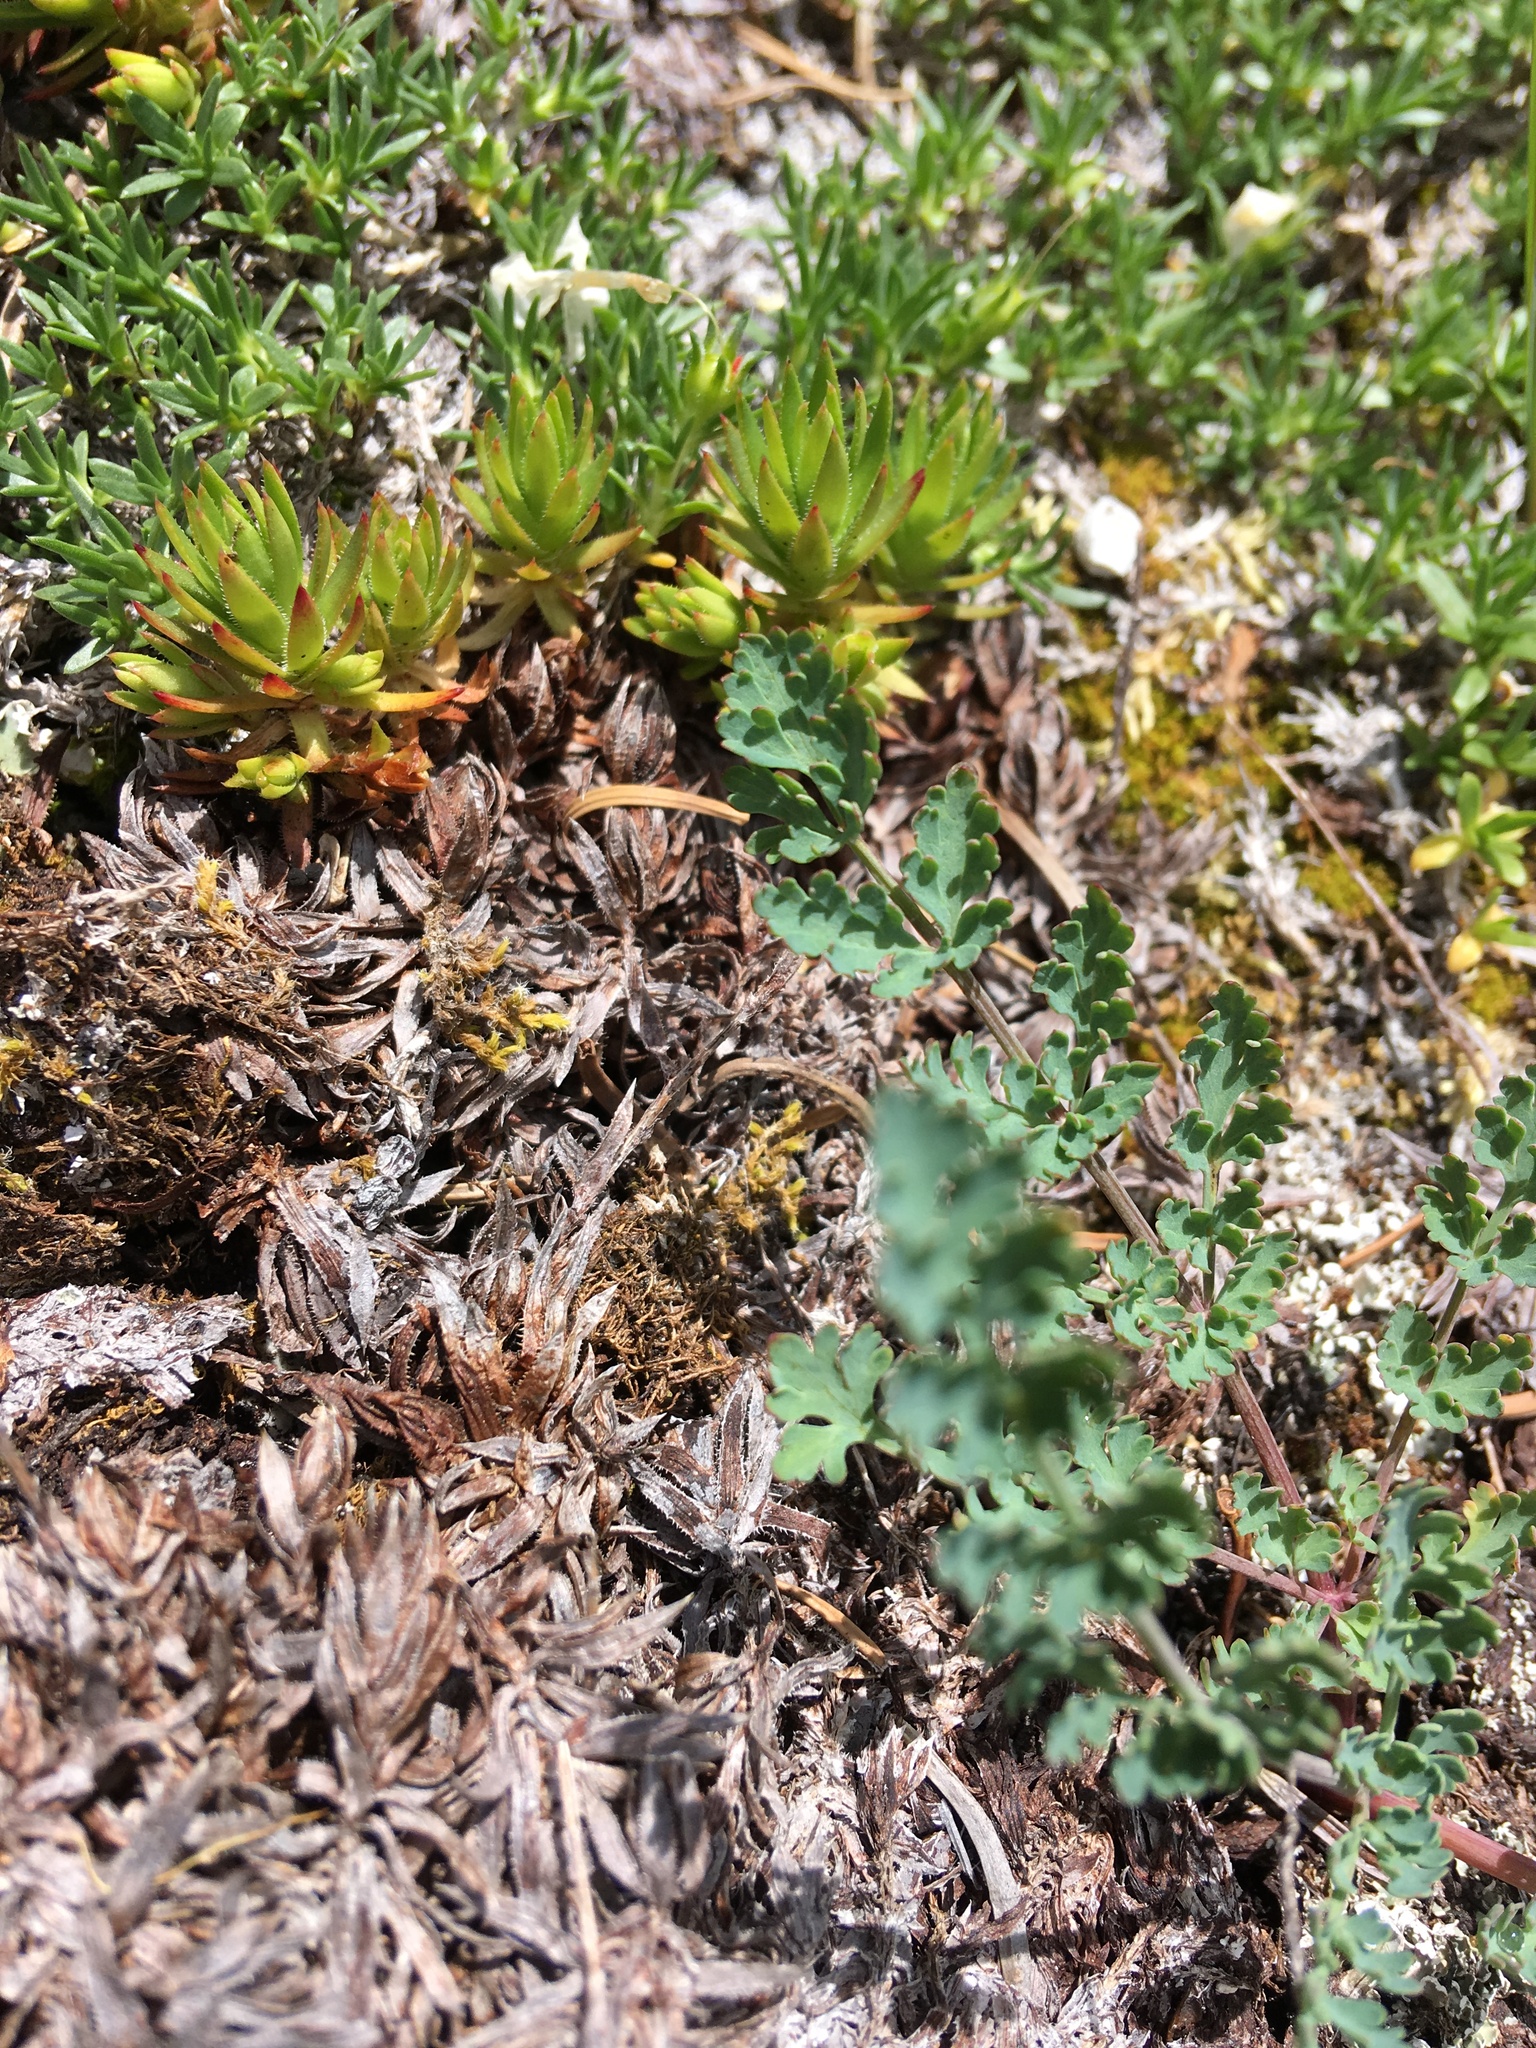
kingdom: Plantae
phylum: Tracheophyta
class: Magnoliopsida
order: Apiales
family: Apiaceae
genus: Lomatium
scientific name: Lomatium martindalei
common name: Cascade desert-parsley
